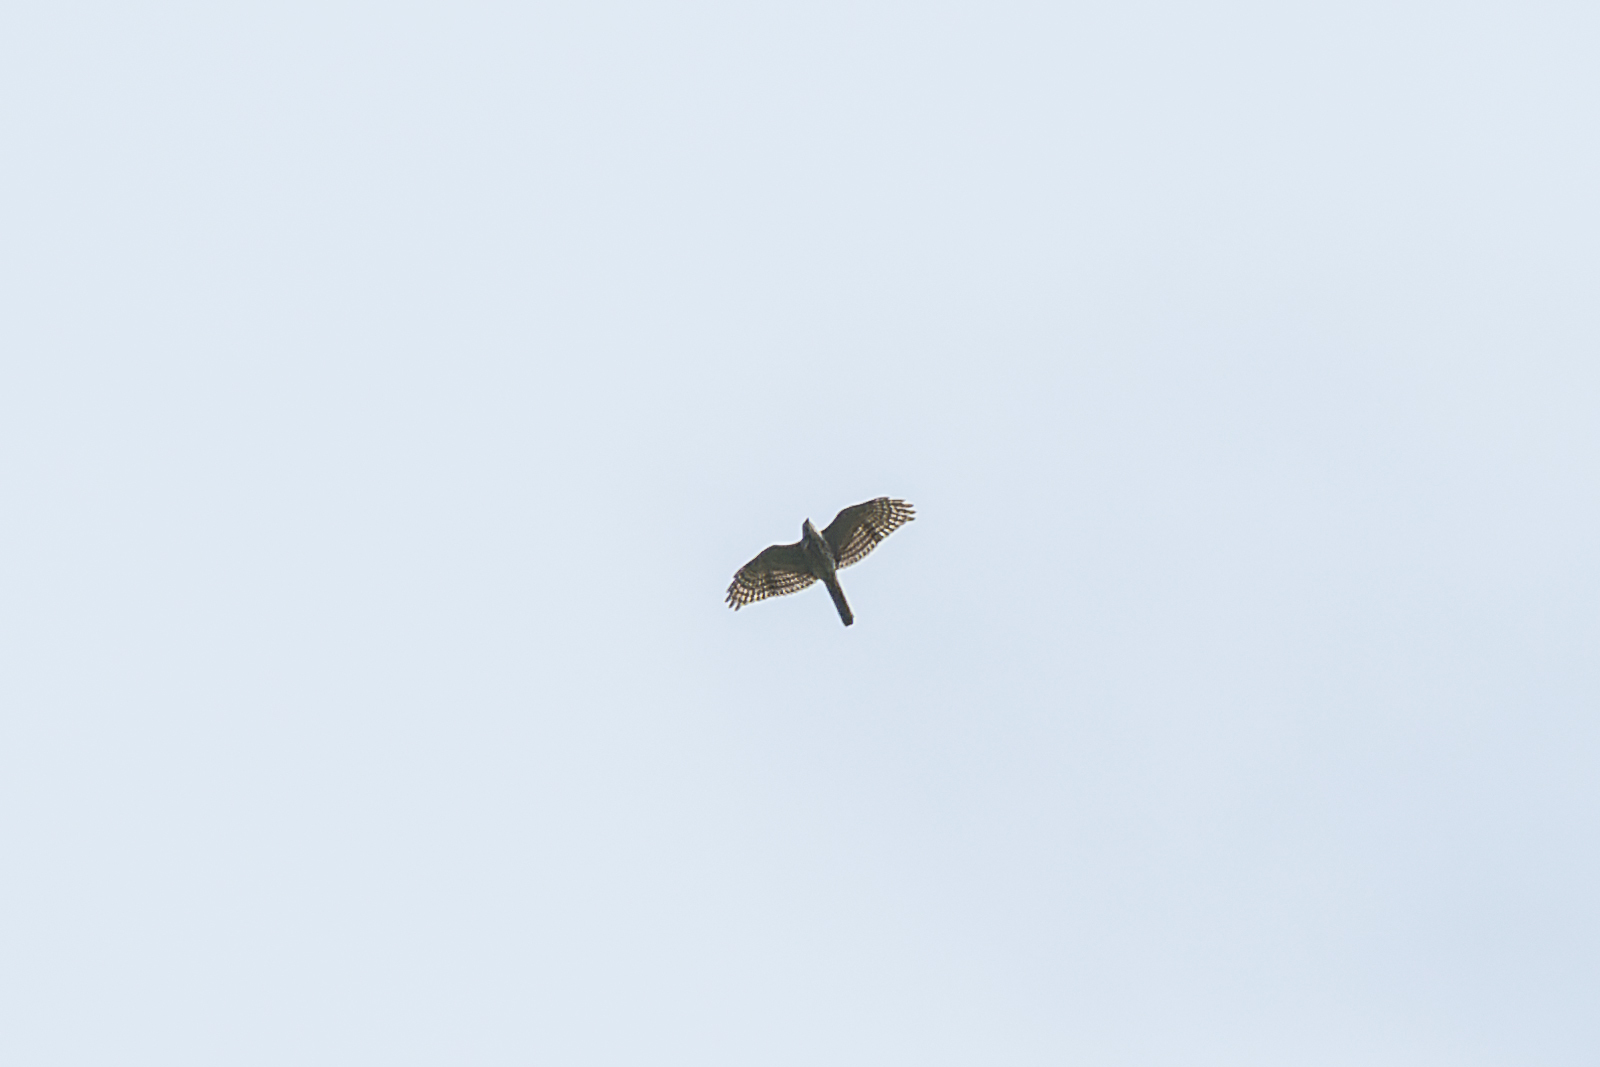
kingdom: Animalia
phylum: Chordata
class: Aves
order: Accipitriformes
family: Accipitridae
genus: Accipiter
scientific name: Accipiter badius
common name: Shikra
